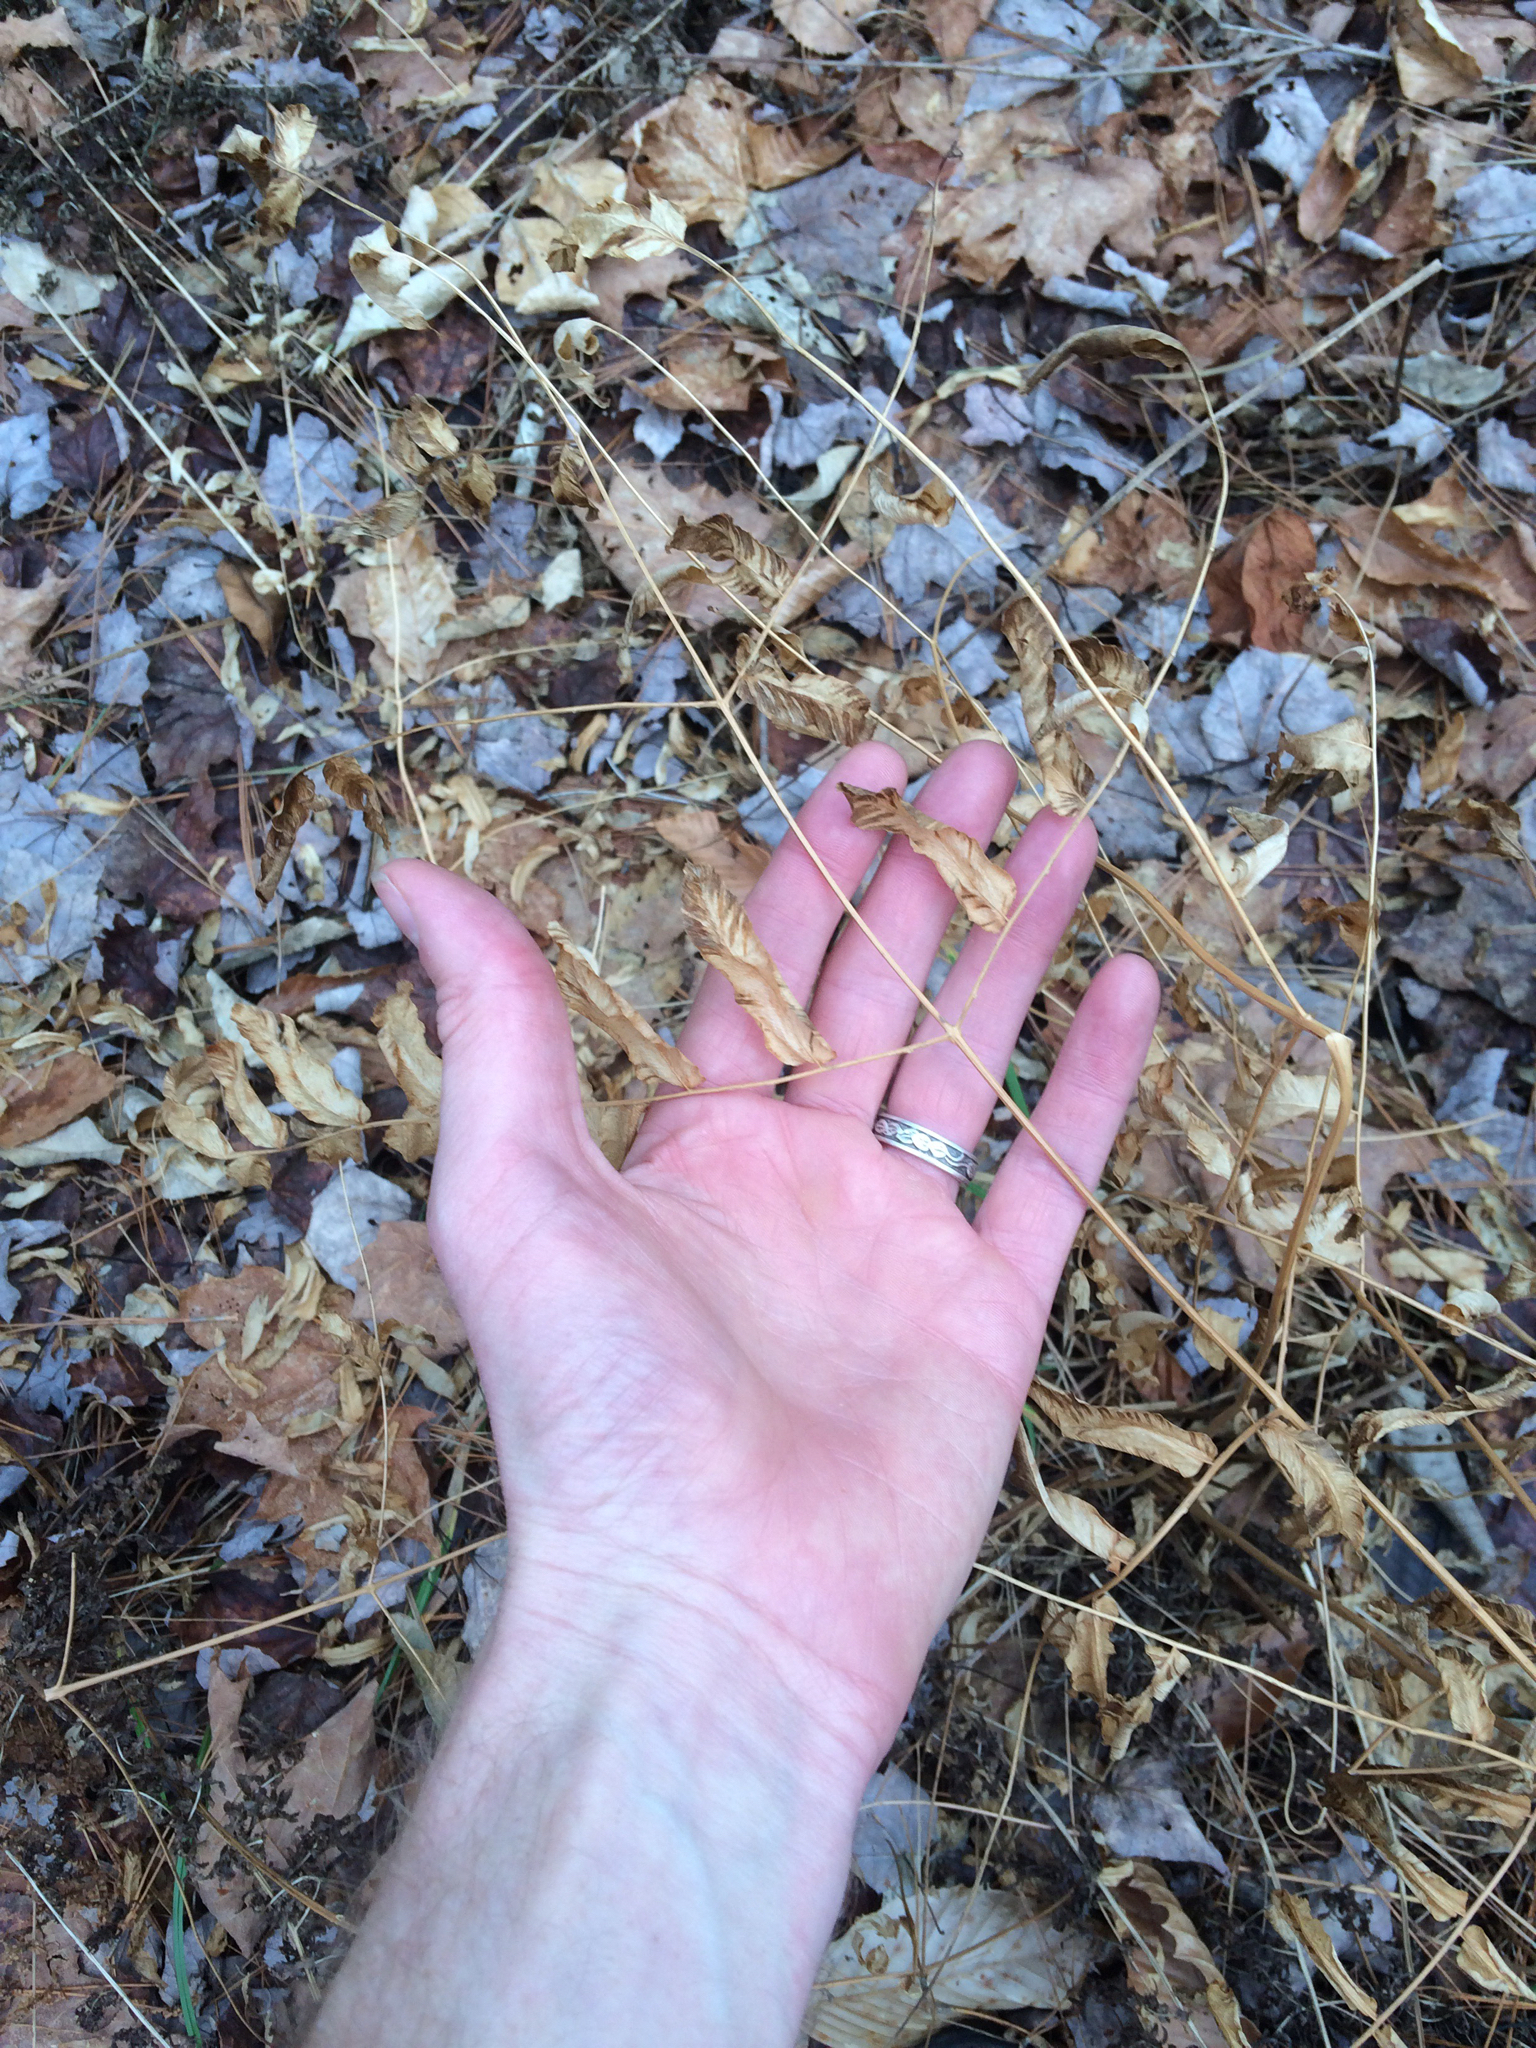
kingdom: Plantae
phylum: Tracheophyta
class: Polypodiopsida
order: Osmundales
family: Osmundaceae
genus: Osmunda
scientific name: Osmunda spectabilis
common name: American royal fern
